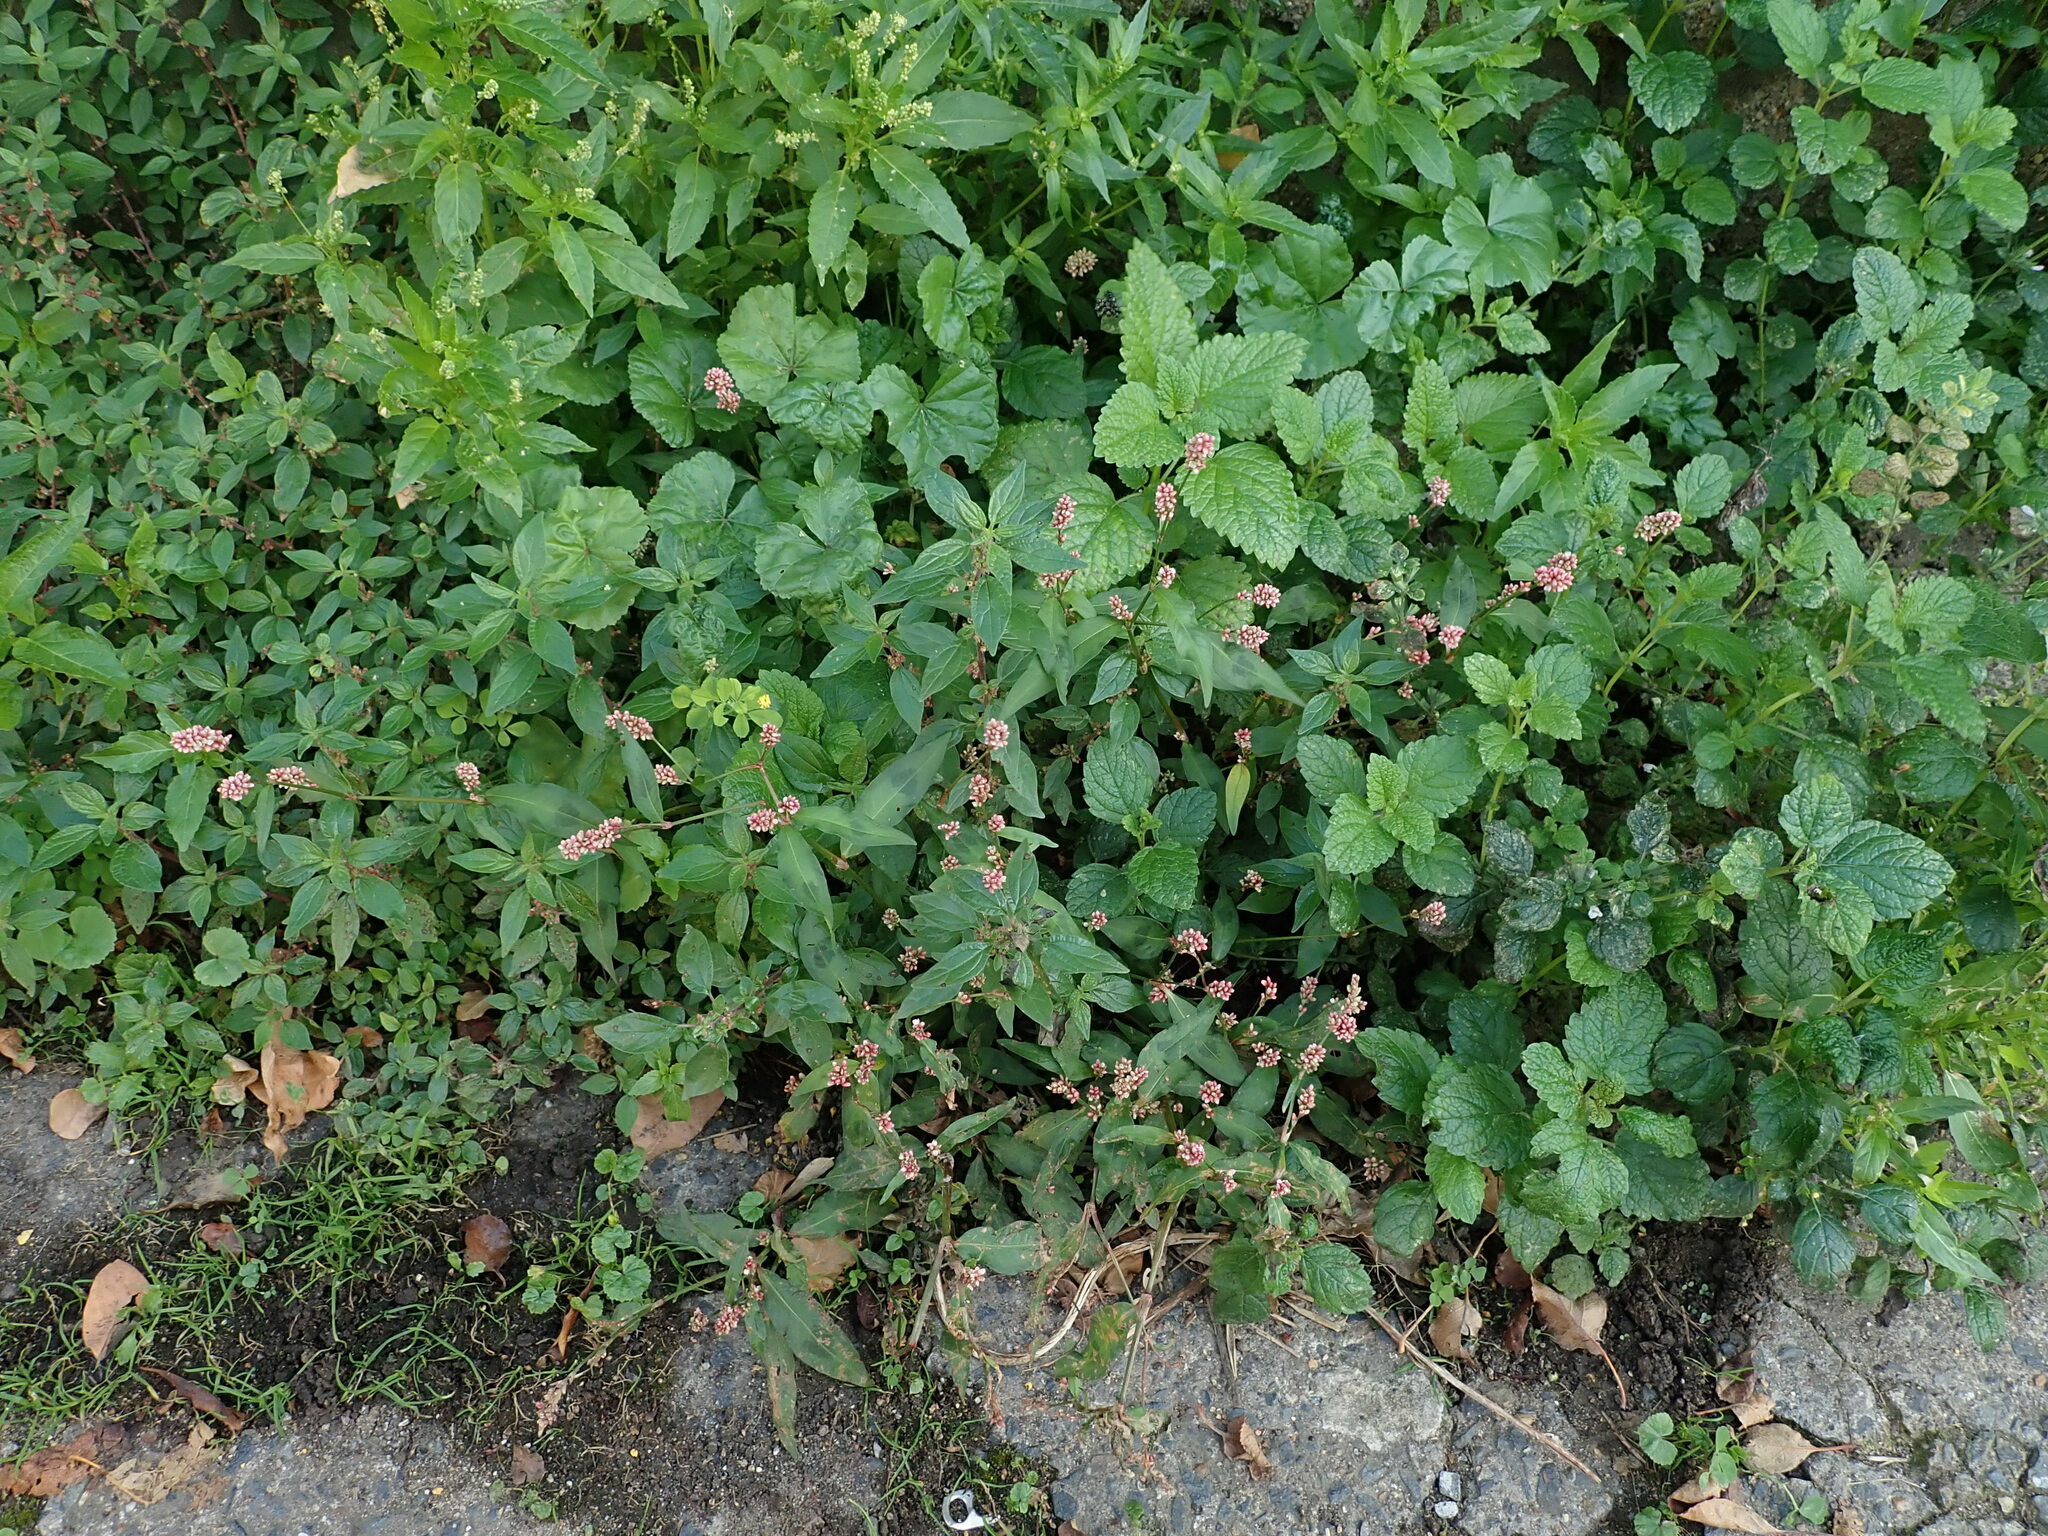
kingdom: Plantae
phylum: Tracheophyta
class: Magnoliopsida
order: Caryophyllales
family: Polygonaceae
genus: Persicaria
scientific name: Persicaria maculosa
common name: Redshank
